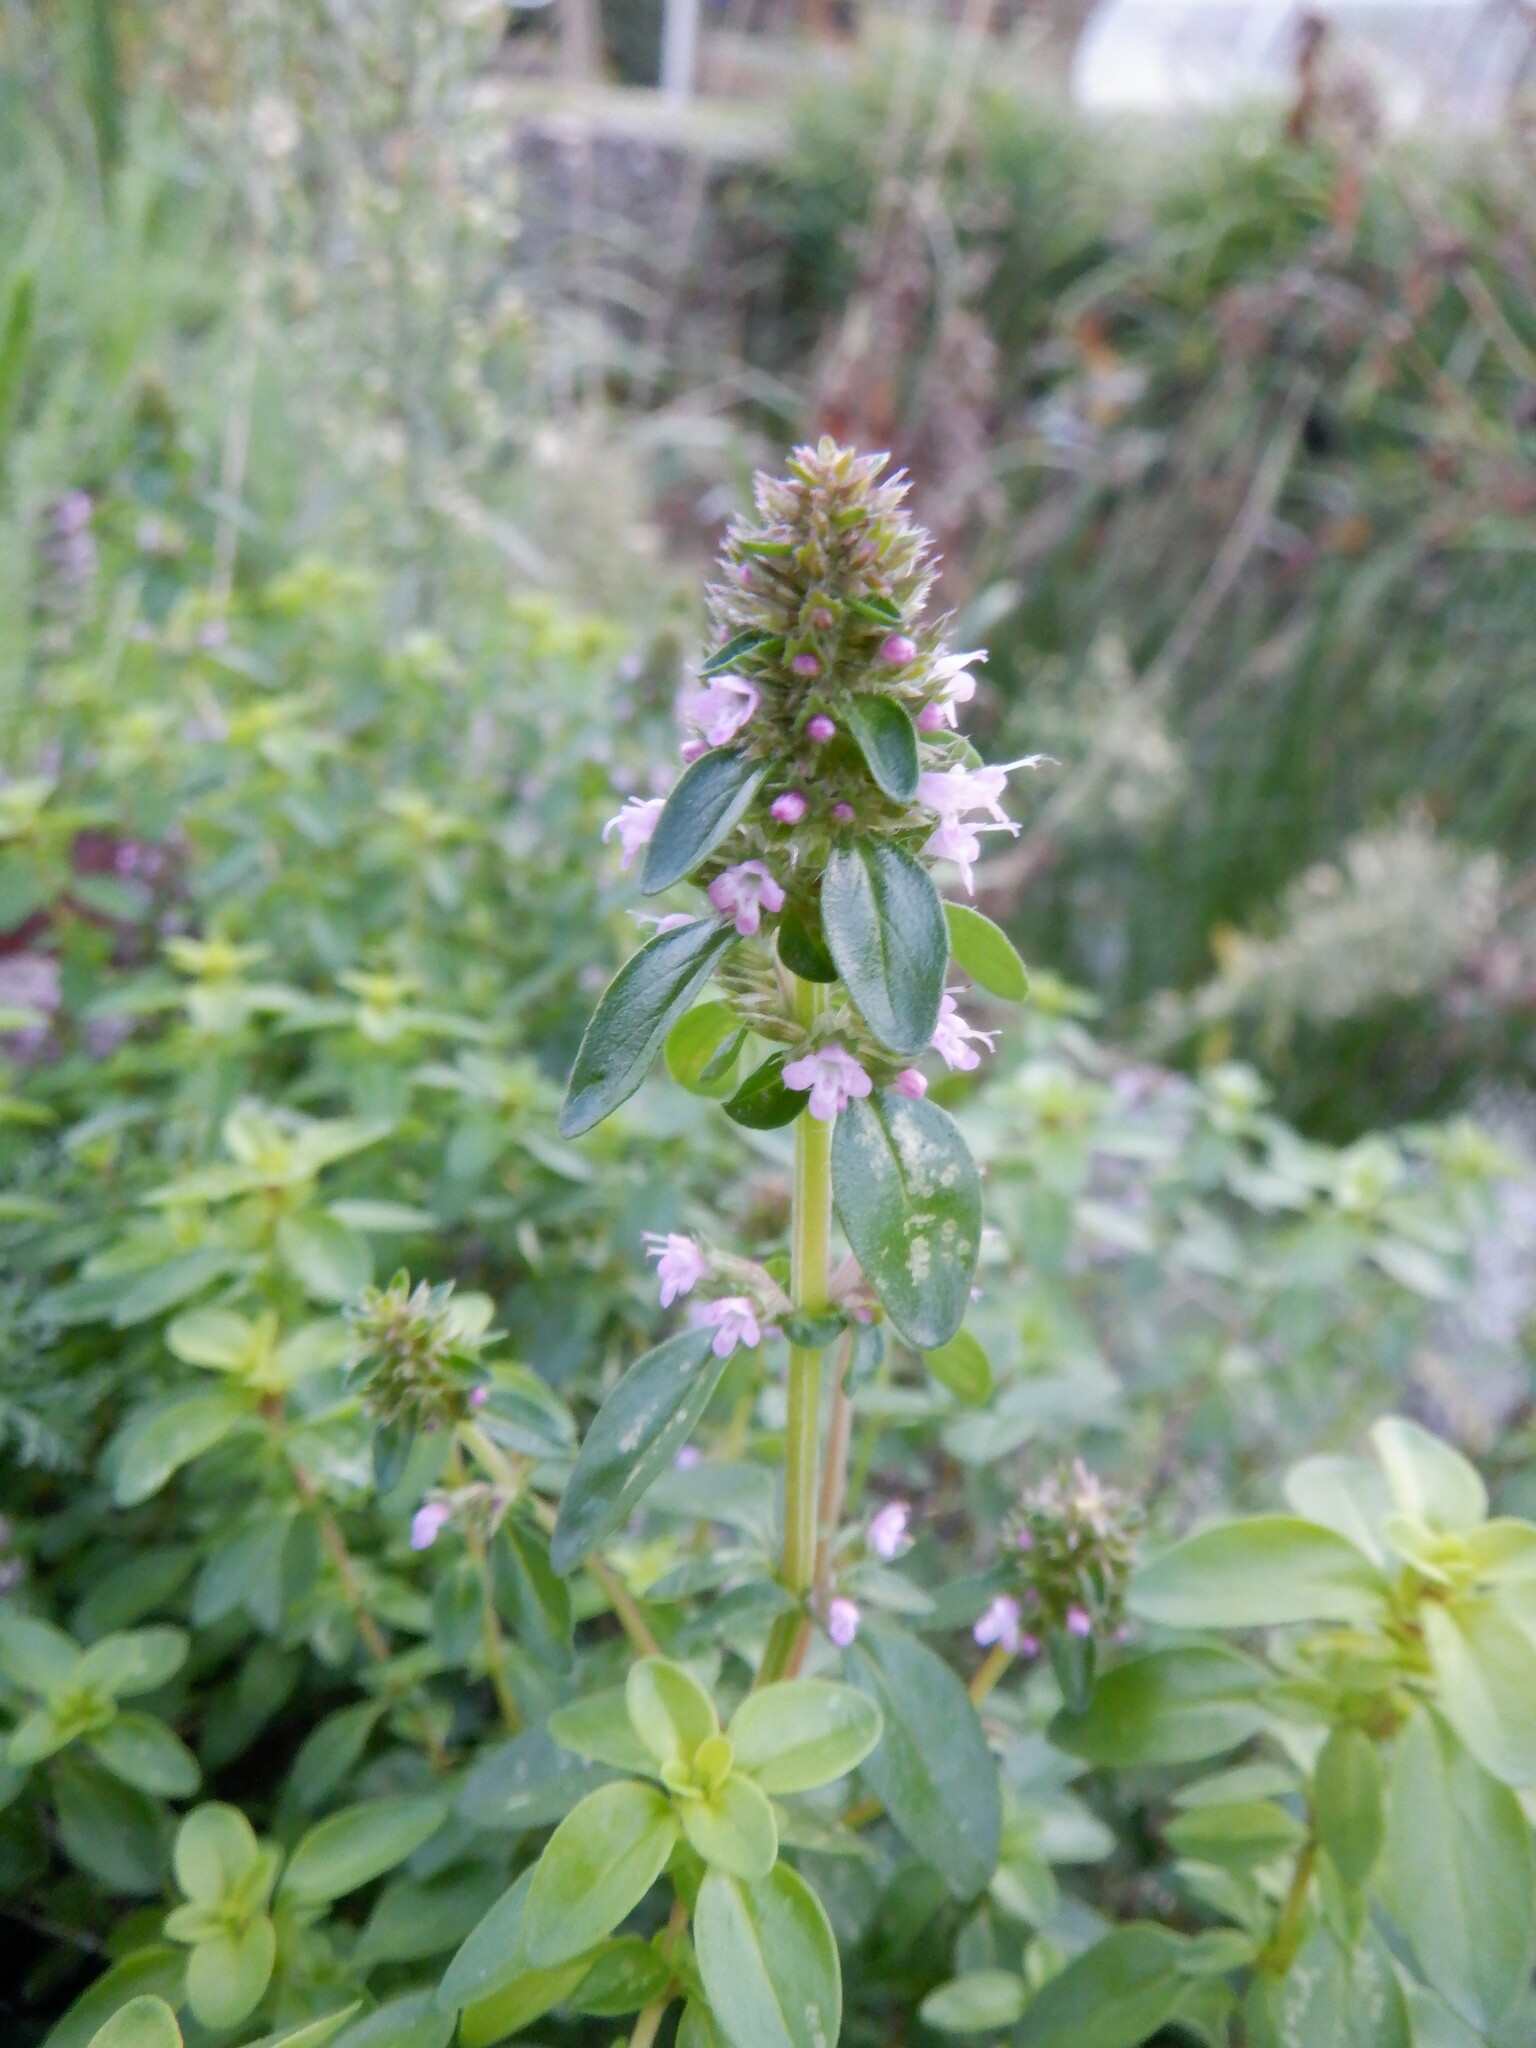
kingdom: Plantae
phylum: Tracheophyta
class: Magnoliopsida
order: Lamiales
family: Lamiaceae
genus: Thymus
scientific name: Thymus pulegioides
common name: Large thyme
